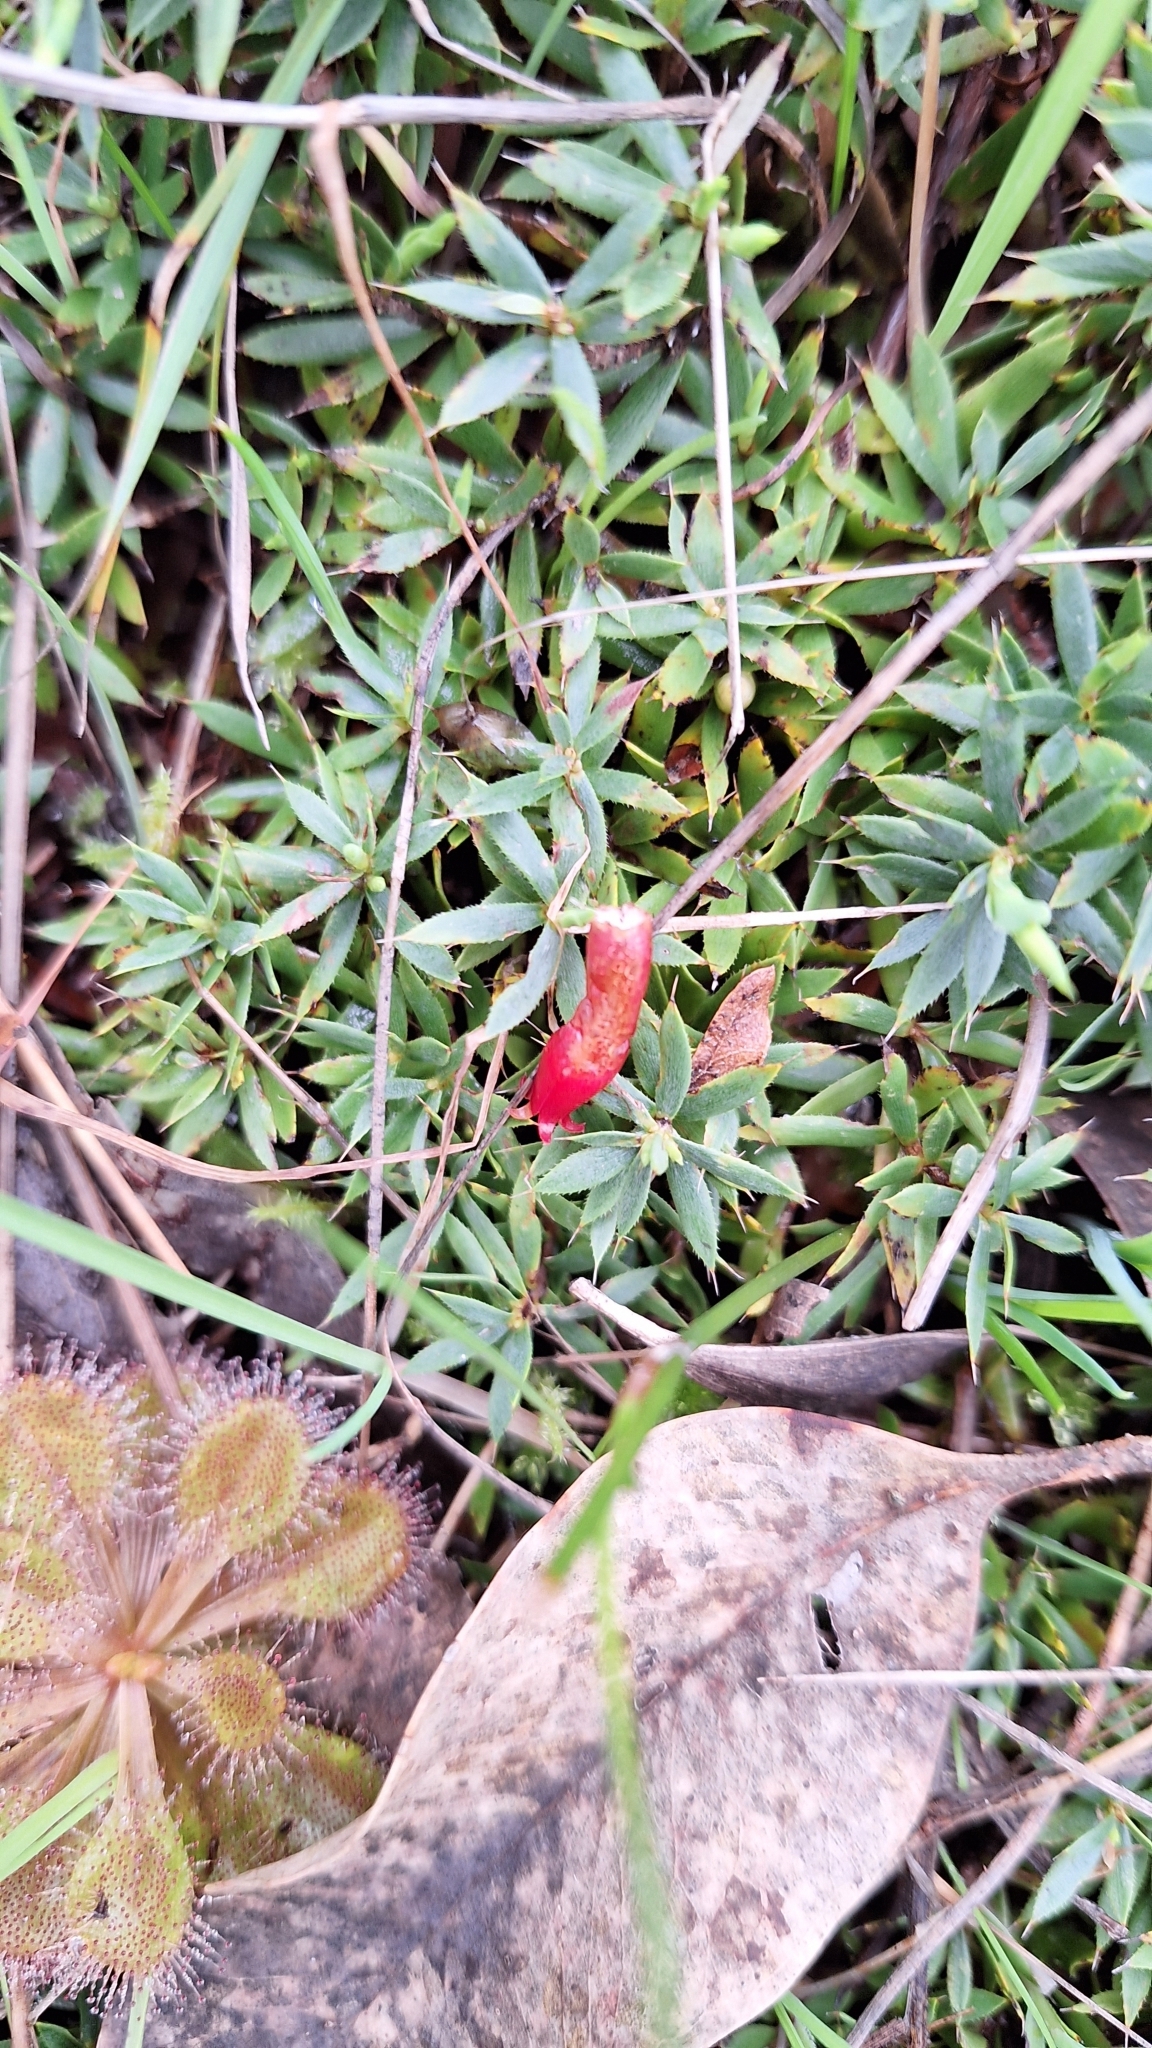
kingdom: Plantae
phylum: Tracheophyta
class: Magnoliopsida
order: Ericales
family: Ericaceae
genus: Styphelia
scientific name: Styphelia humifusa
